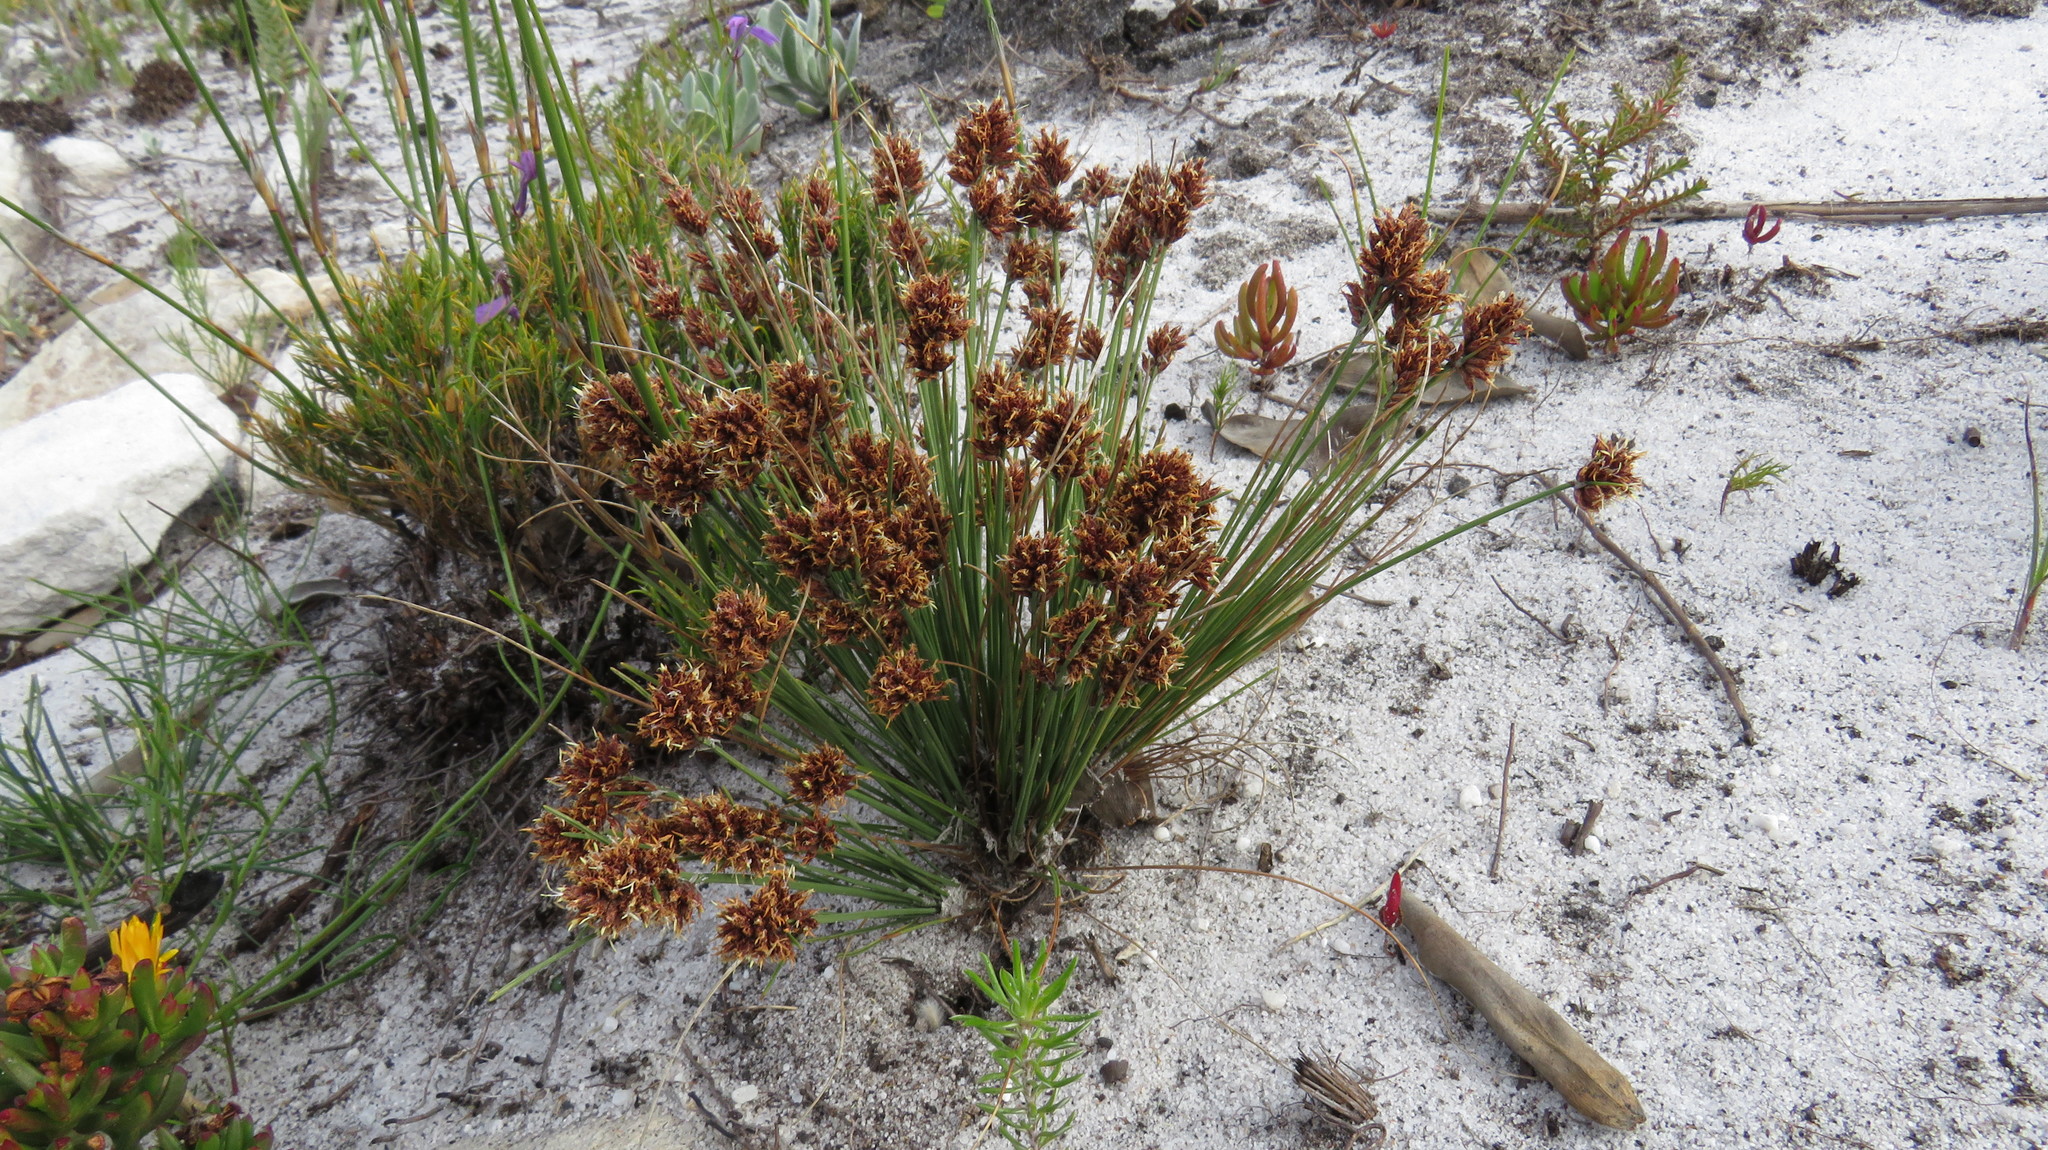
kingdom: Plantae
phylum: Tracheophyta
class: Liliopsida
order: Poales
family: Cyperaceae
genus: Ficinia
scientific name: Ficinia bulbosa
